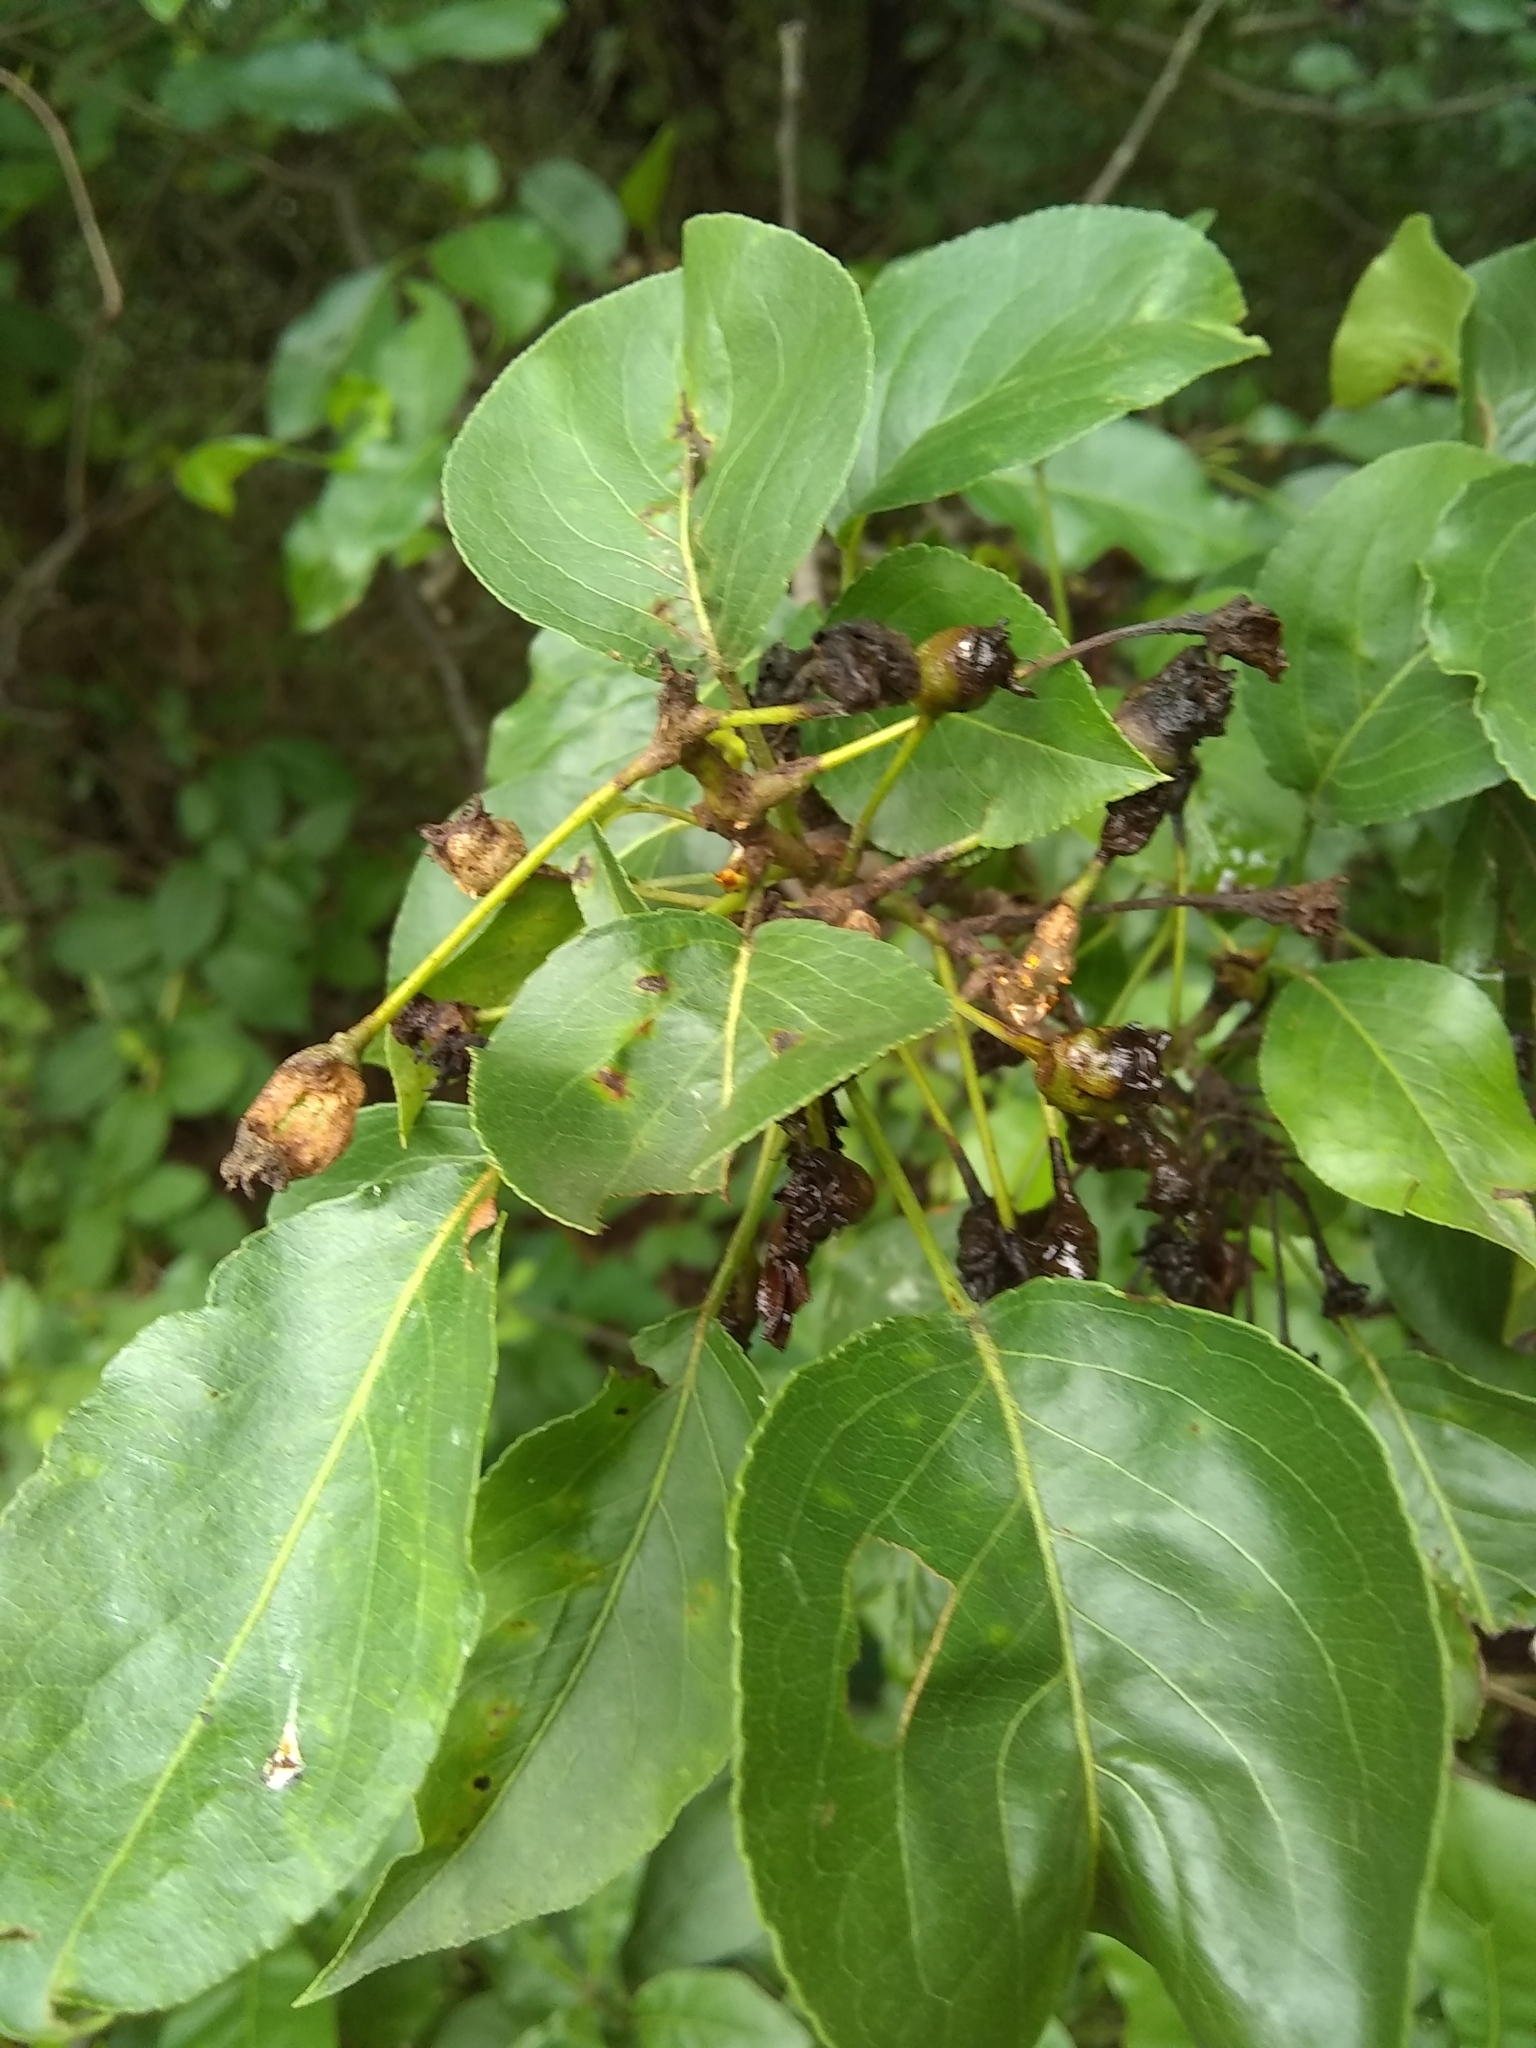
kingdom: Plantae
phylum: Tracheophyta
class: Magnoliopsida
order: Rosales
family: Rosaceae
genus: Pyrus
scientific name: Pyrus calleryana
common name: Callery pear
